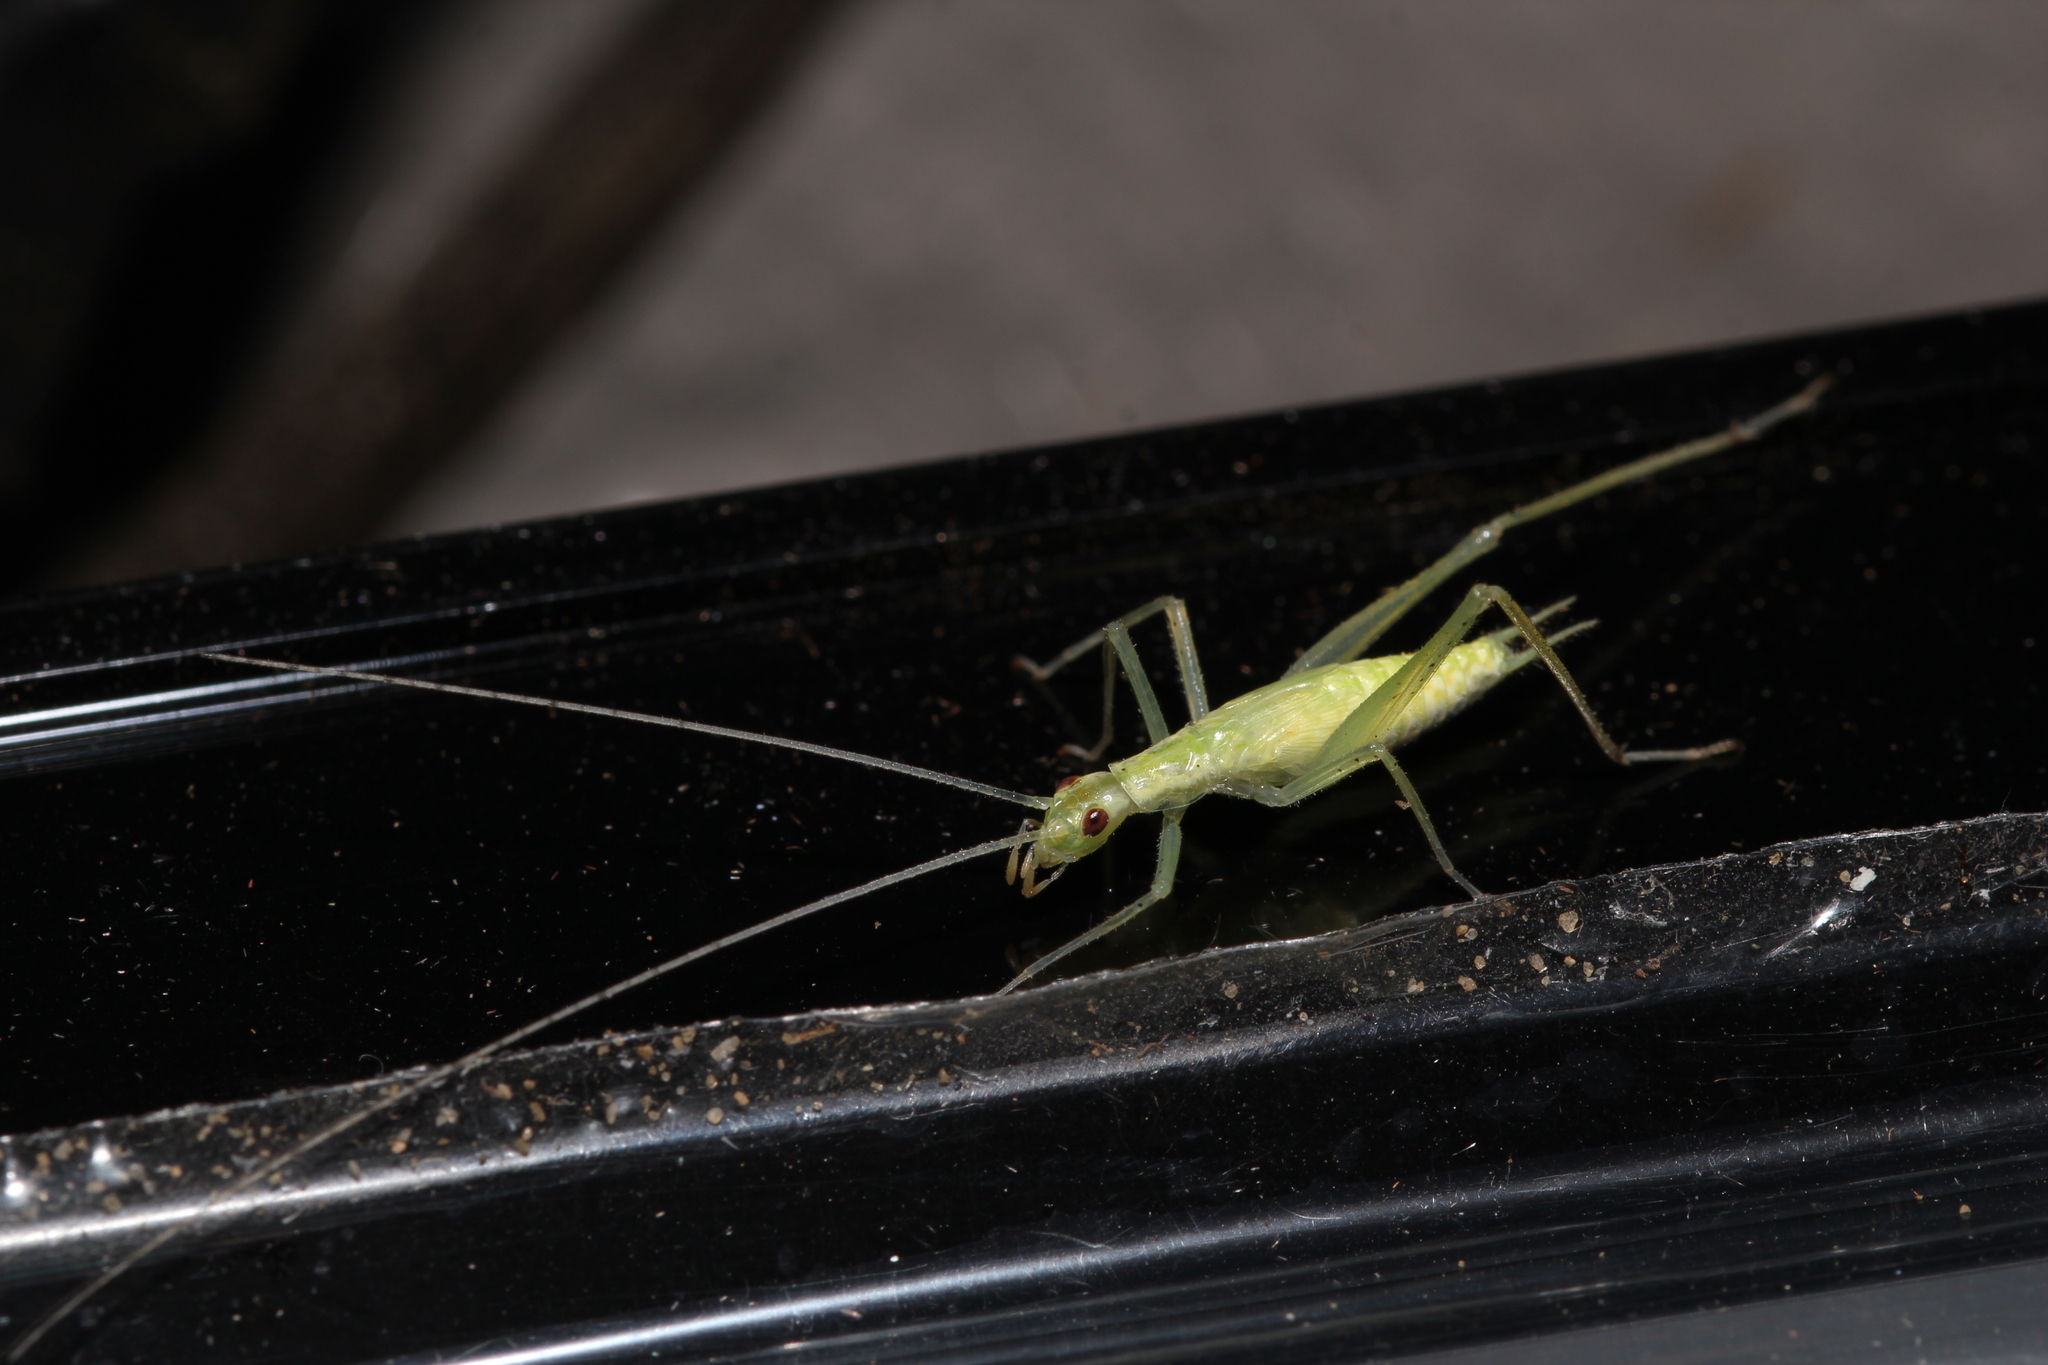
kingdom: Animalia
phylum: Arthropoda
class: Insecta
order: Orthoptera
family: Gryllidae
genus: Oecanthus
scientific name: Oecanthus niveus
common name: Narrow-winged tree cricket
